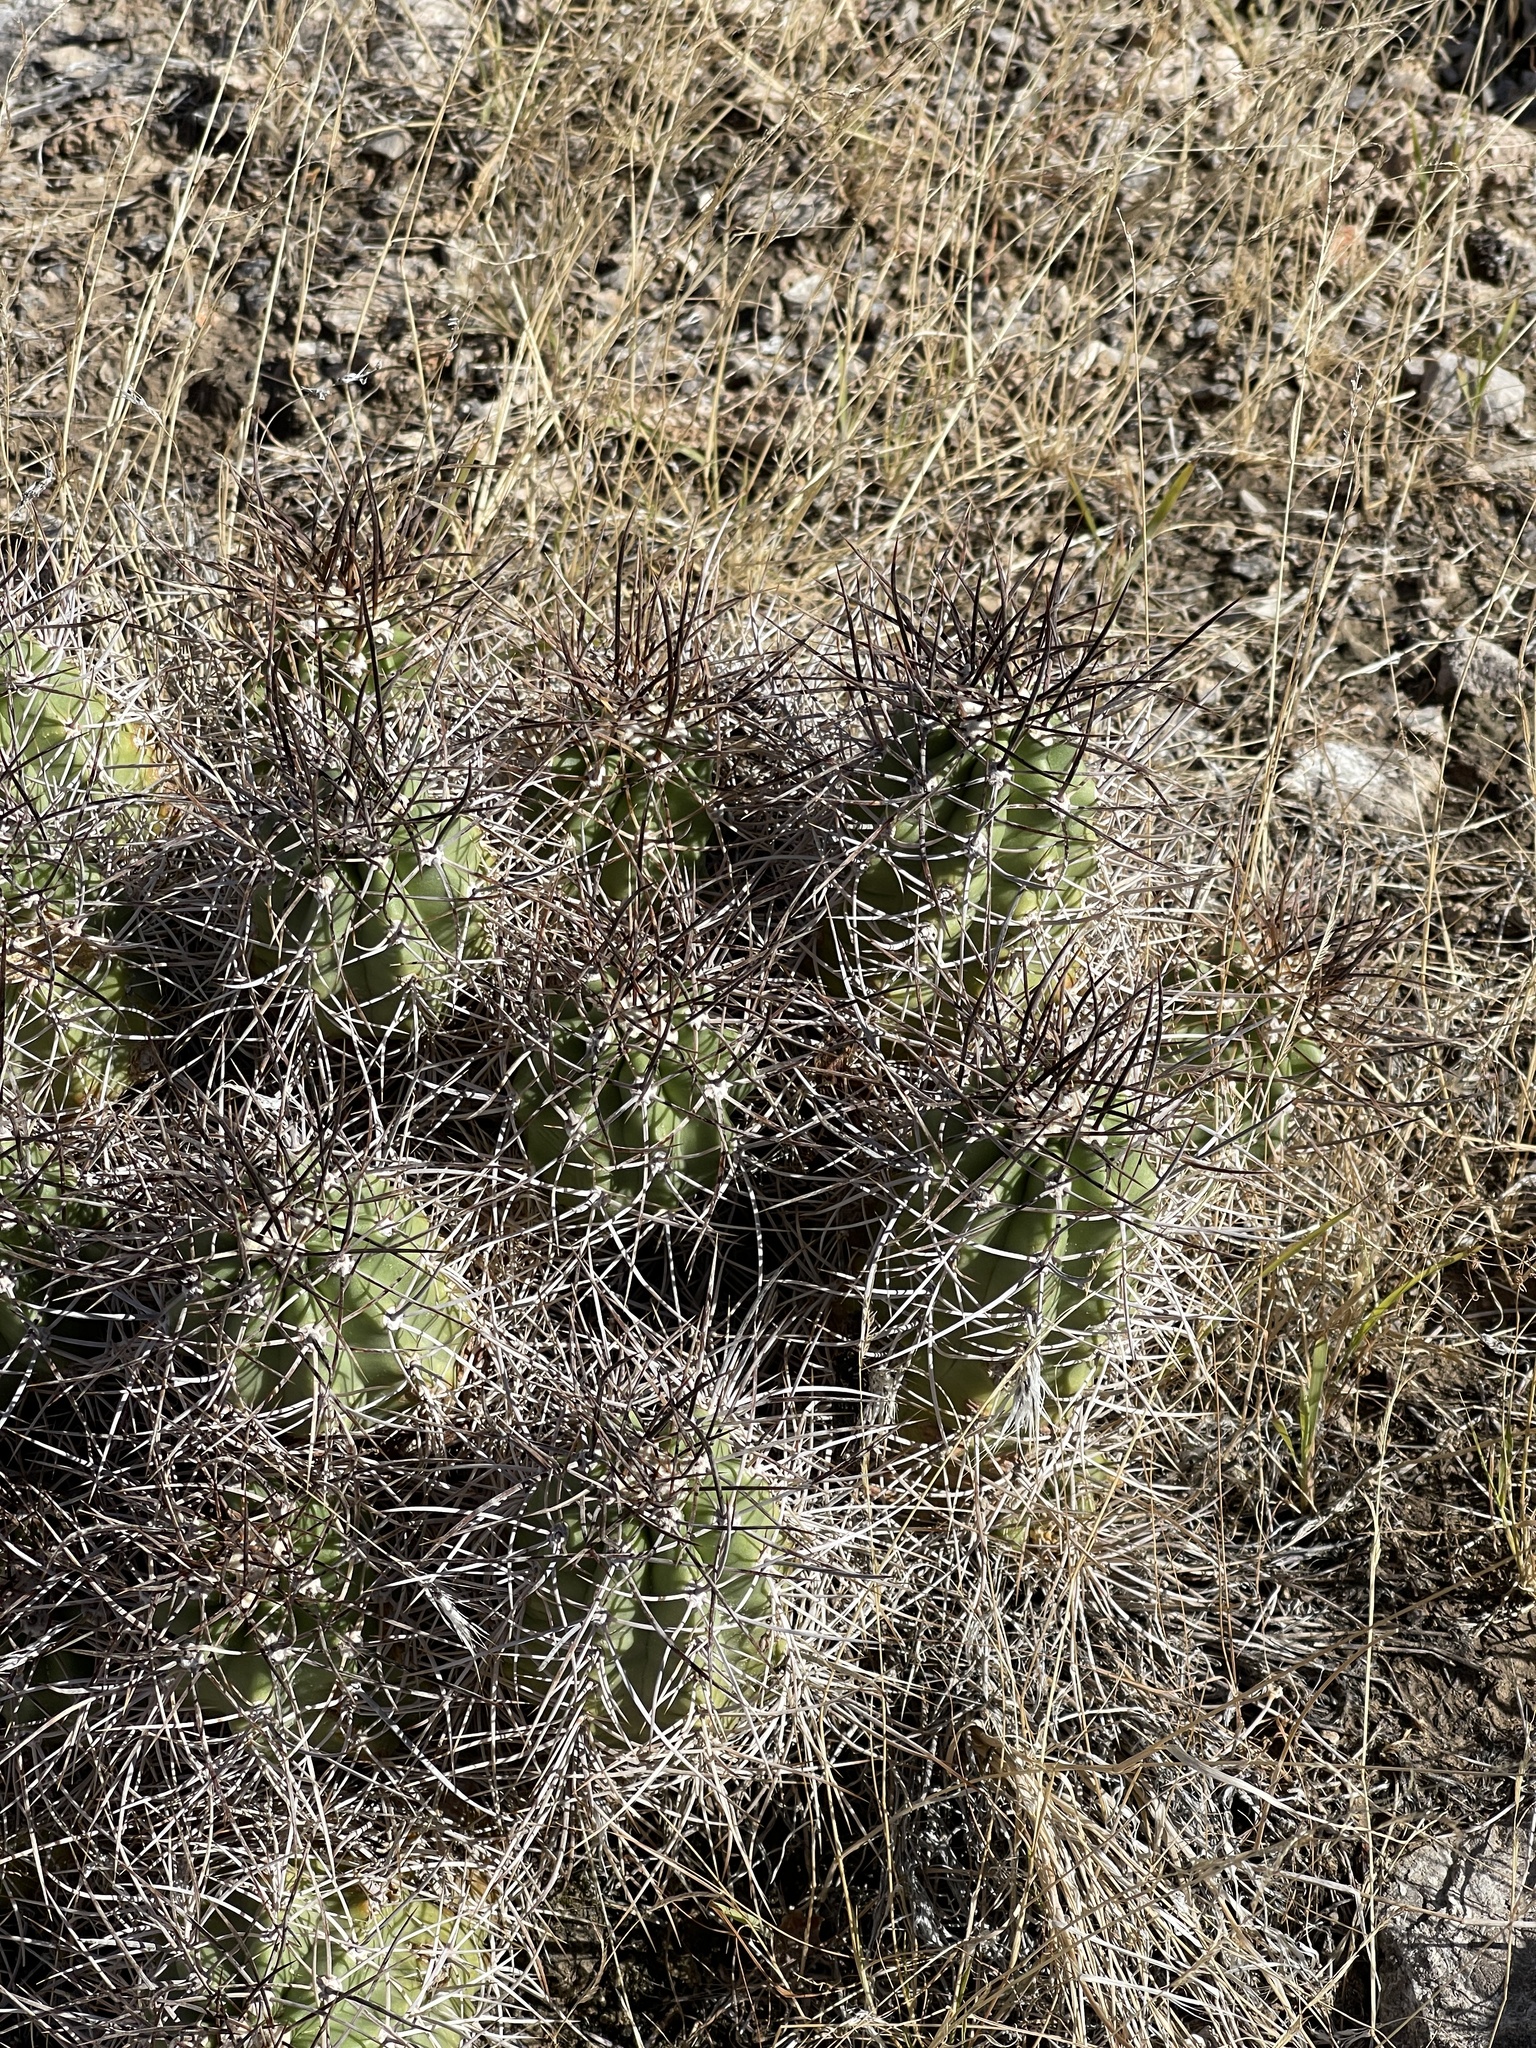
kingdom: Plantae
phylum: Tracheophyta
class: Magnoliopsida
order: Caryophyllales
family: Cactaceae
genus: Echinocereus
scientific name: Echinocereus triglochidiatus
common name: Claretcup hedgehog
